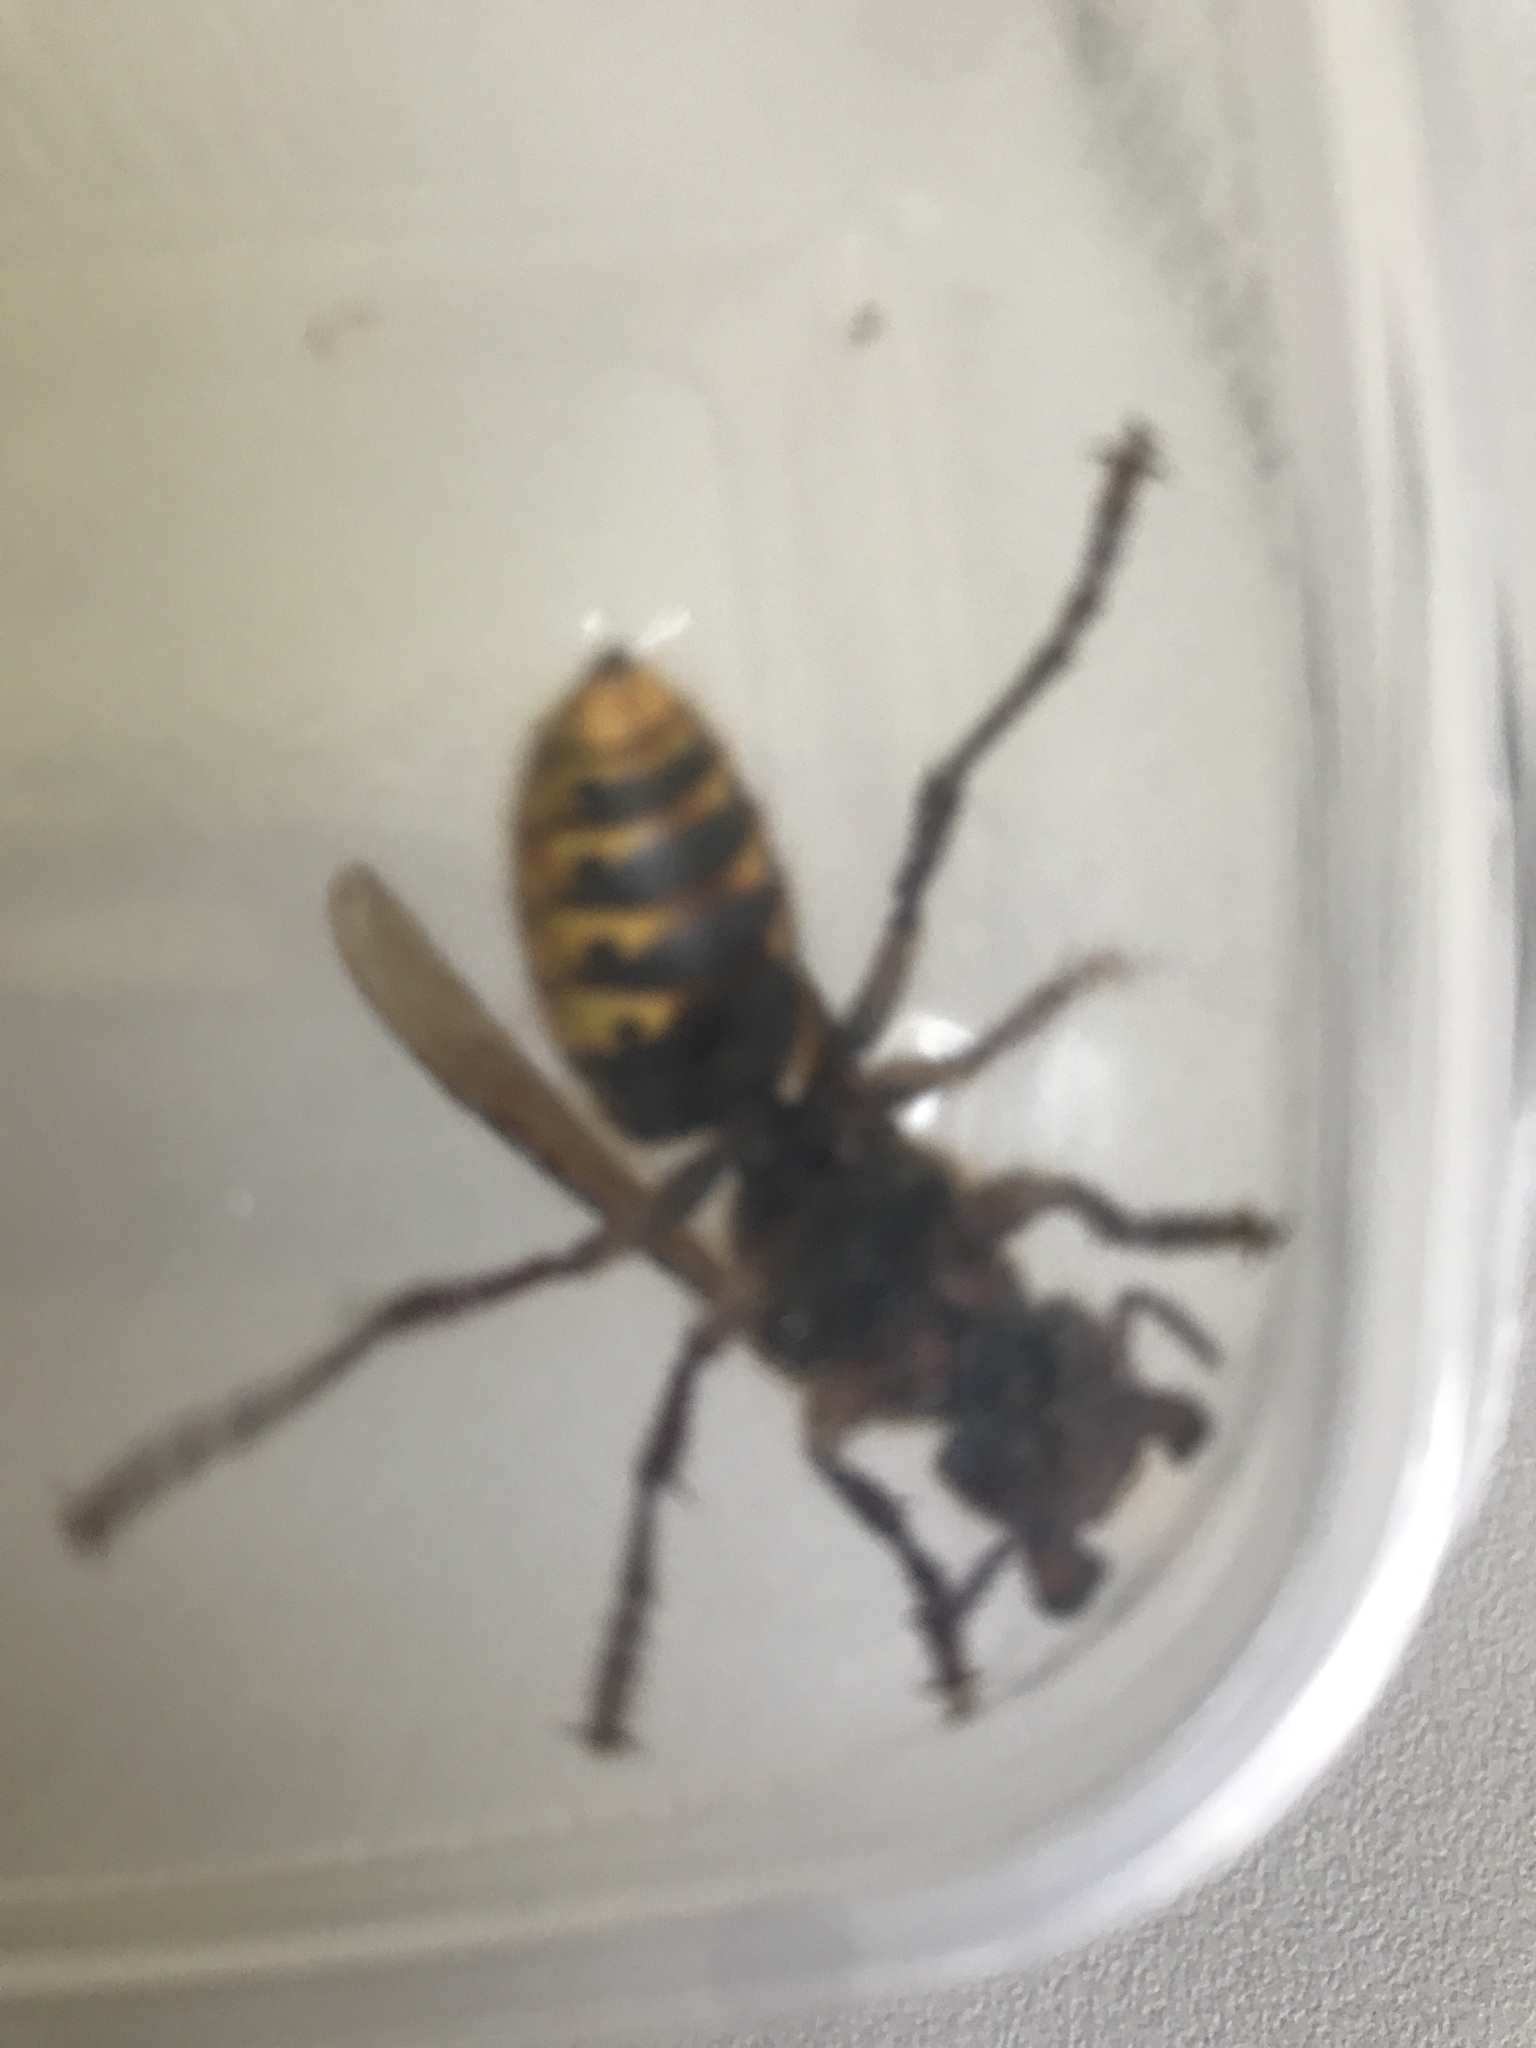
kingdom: Animalia
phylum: Arthropoda
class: Insecta
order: Hymenoptera
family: Vespidae
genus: Vespa
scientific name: Vespa crabro
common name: Hornet
